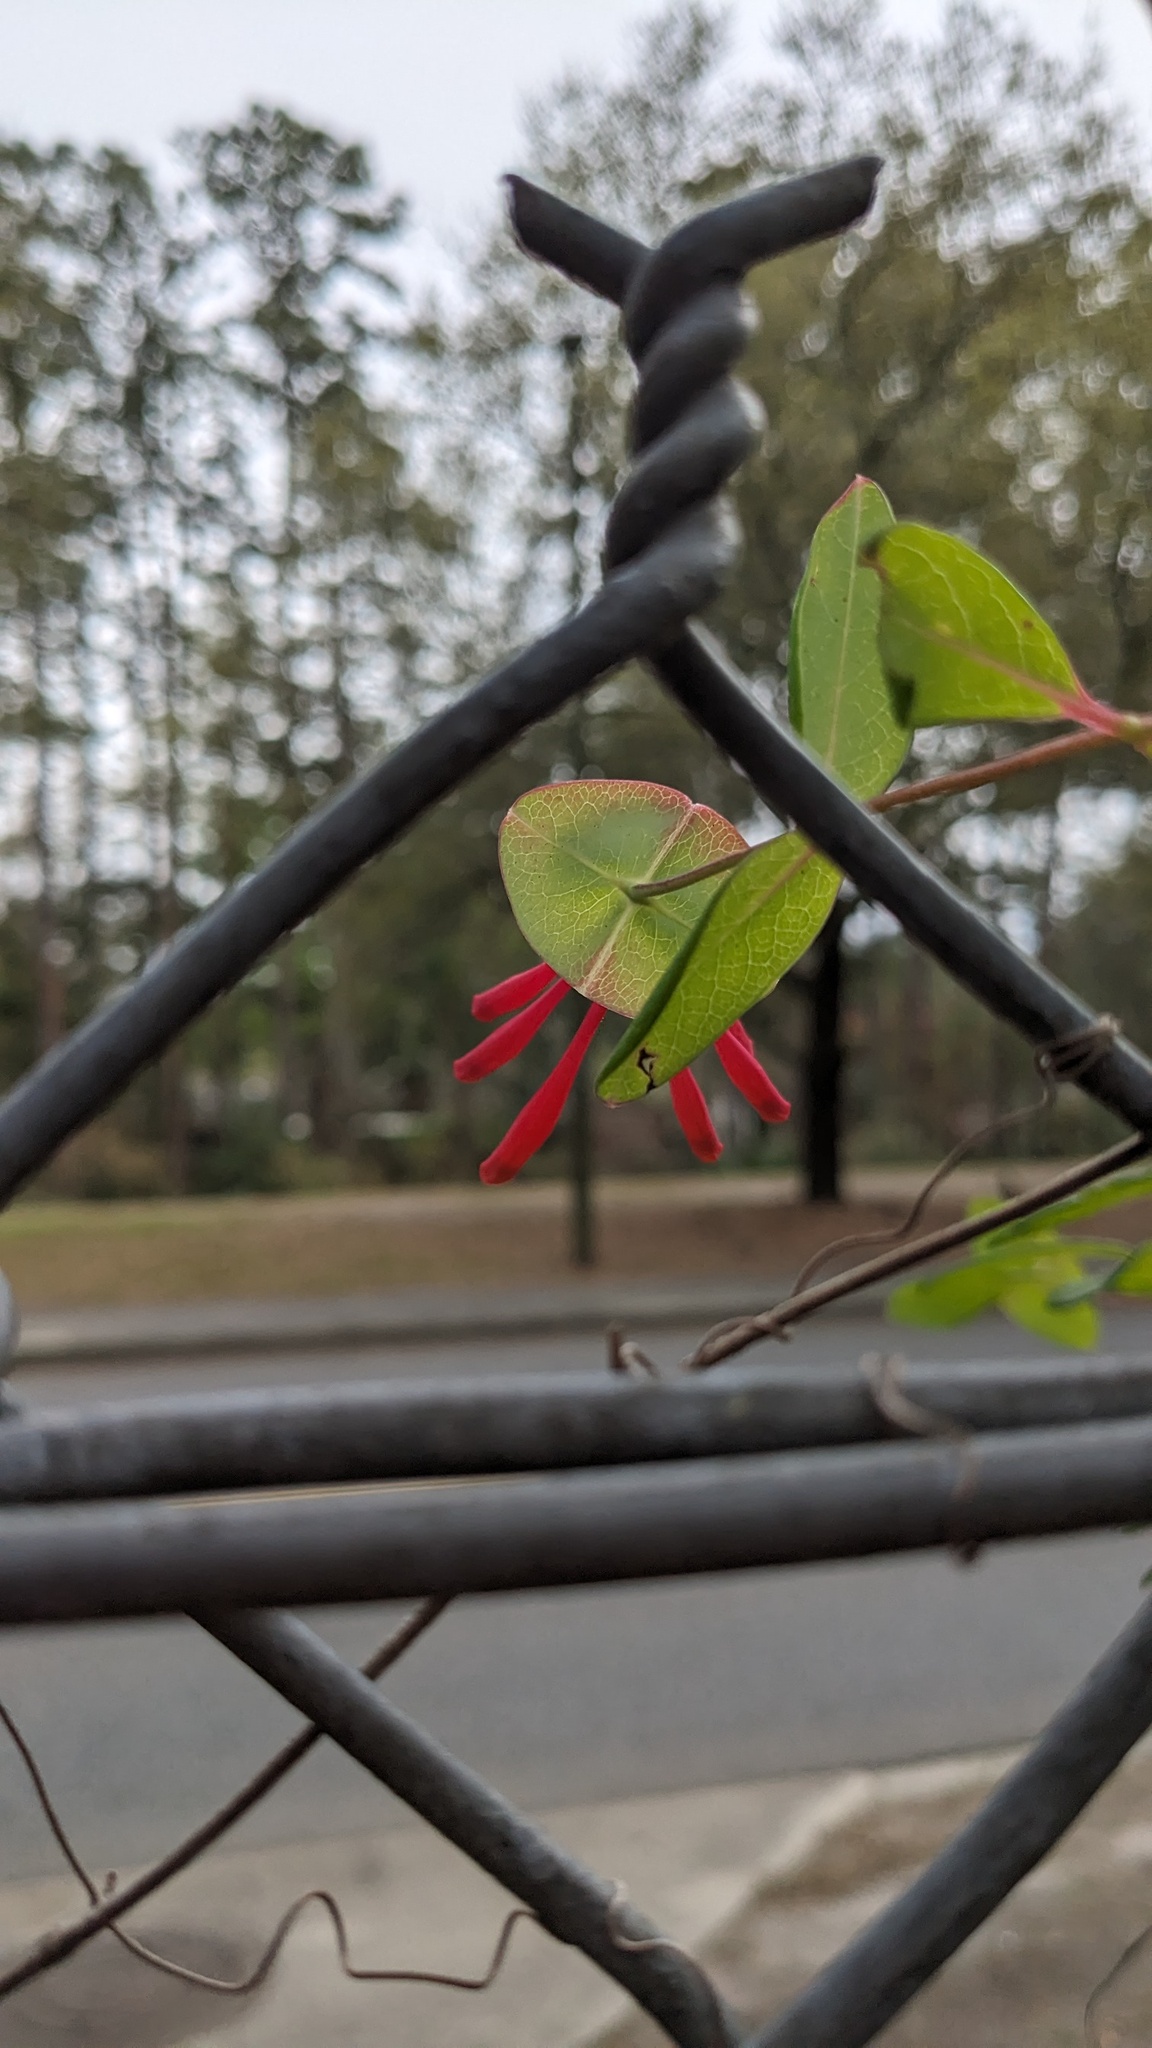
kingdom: Plantae
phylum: Tracheophyta
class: Magnoliopsida
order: Dipsacales
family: Caprifoliaceae
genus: Lonicera
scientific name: Lonicera sempervirens
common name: Coral honeysuckle
